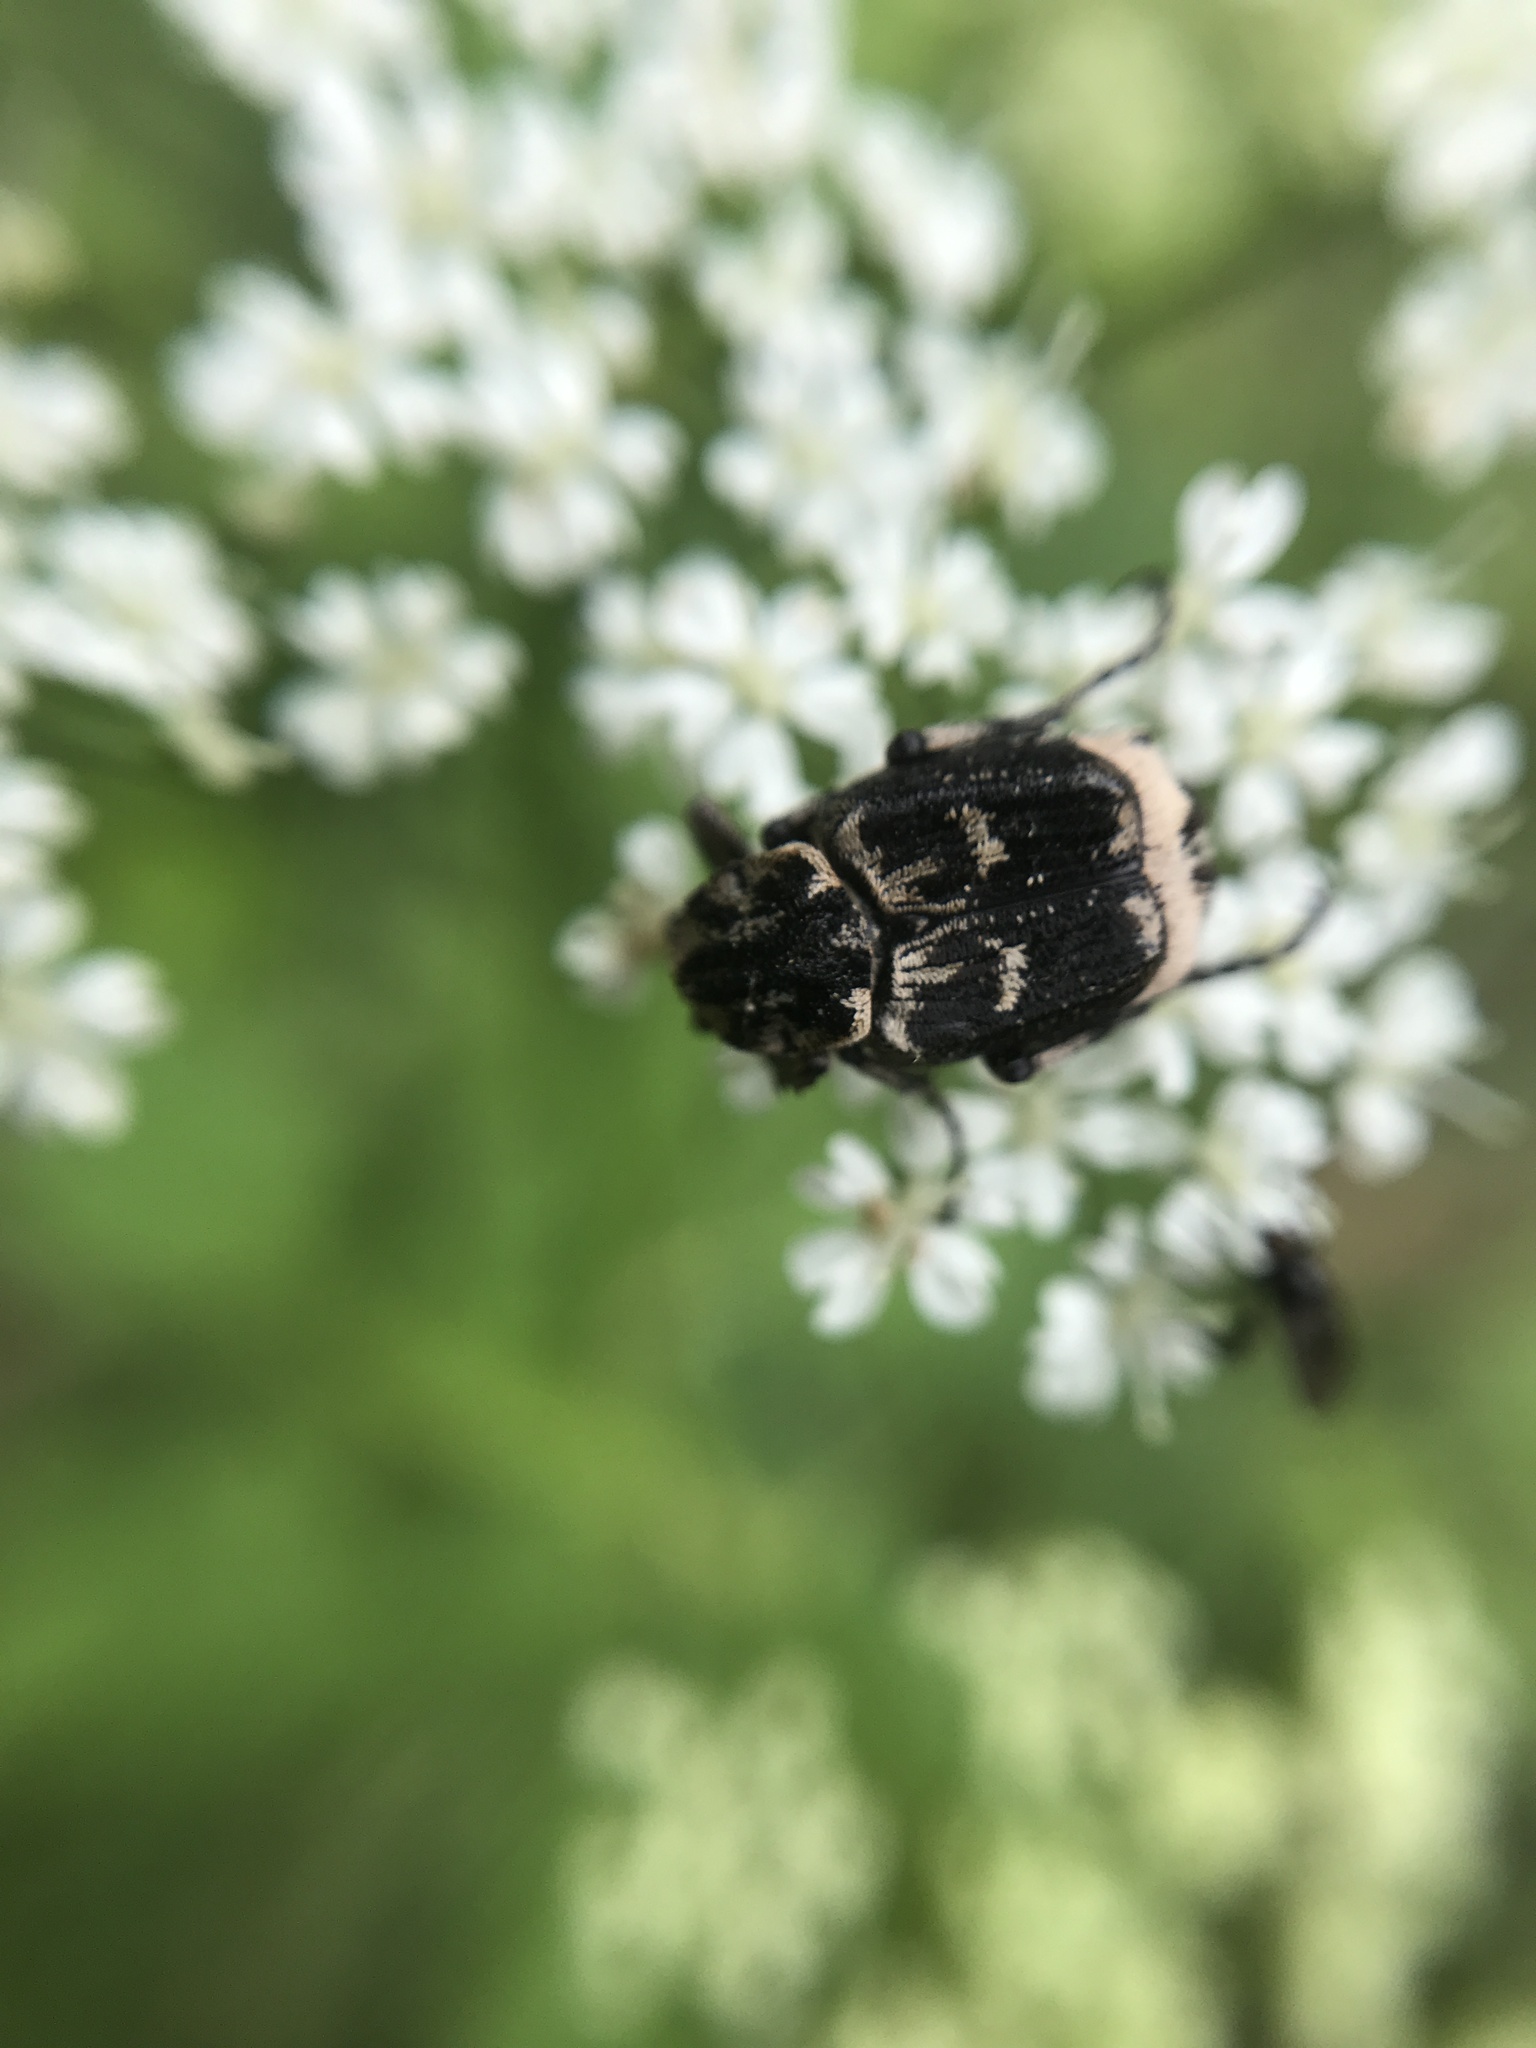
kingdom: Animalia
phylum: Arthropoda
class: Insecta
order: Coleoptera
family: Scarabaeidae
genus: Valgus
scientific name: Valgus hemipterus
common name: Bug flower chafer
